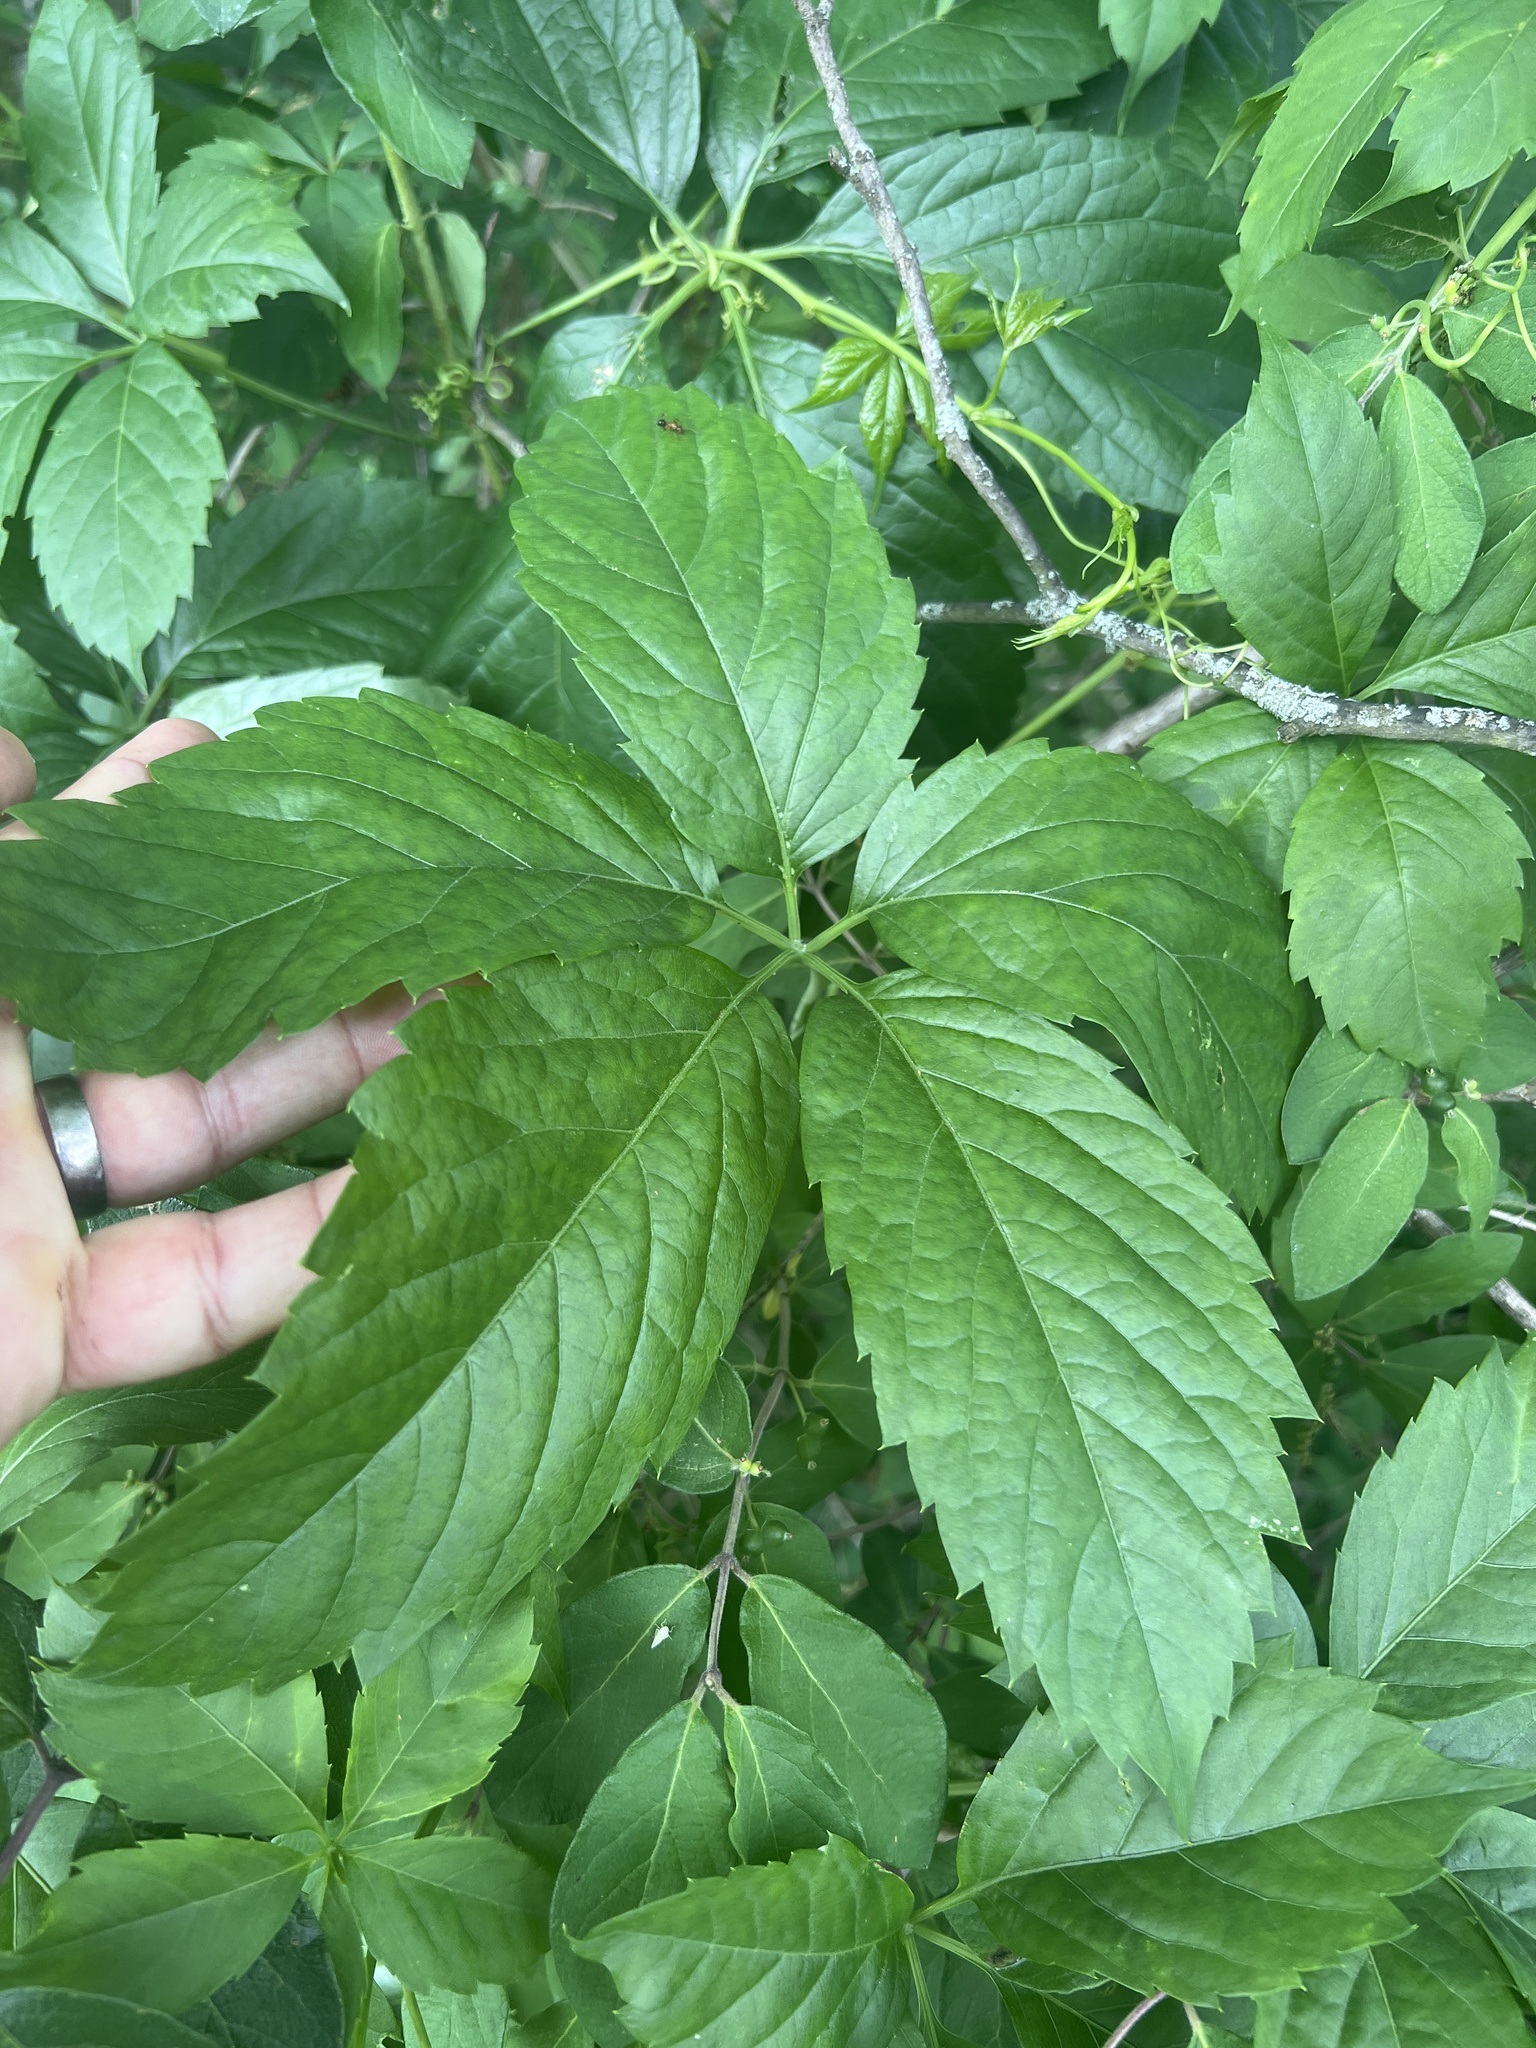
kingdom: Plantae
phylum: Tracheophyta
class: Magnoliopsida
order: Vitales
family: Vitaceae
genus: Parthenocissus
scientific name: Parthenocissus quinquefolia
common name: Virginia-creeper
